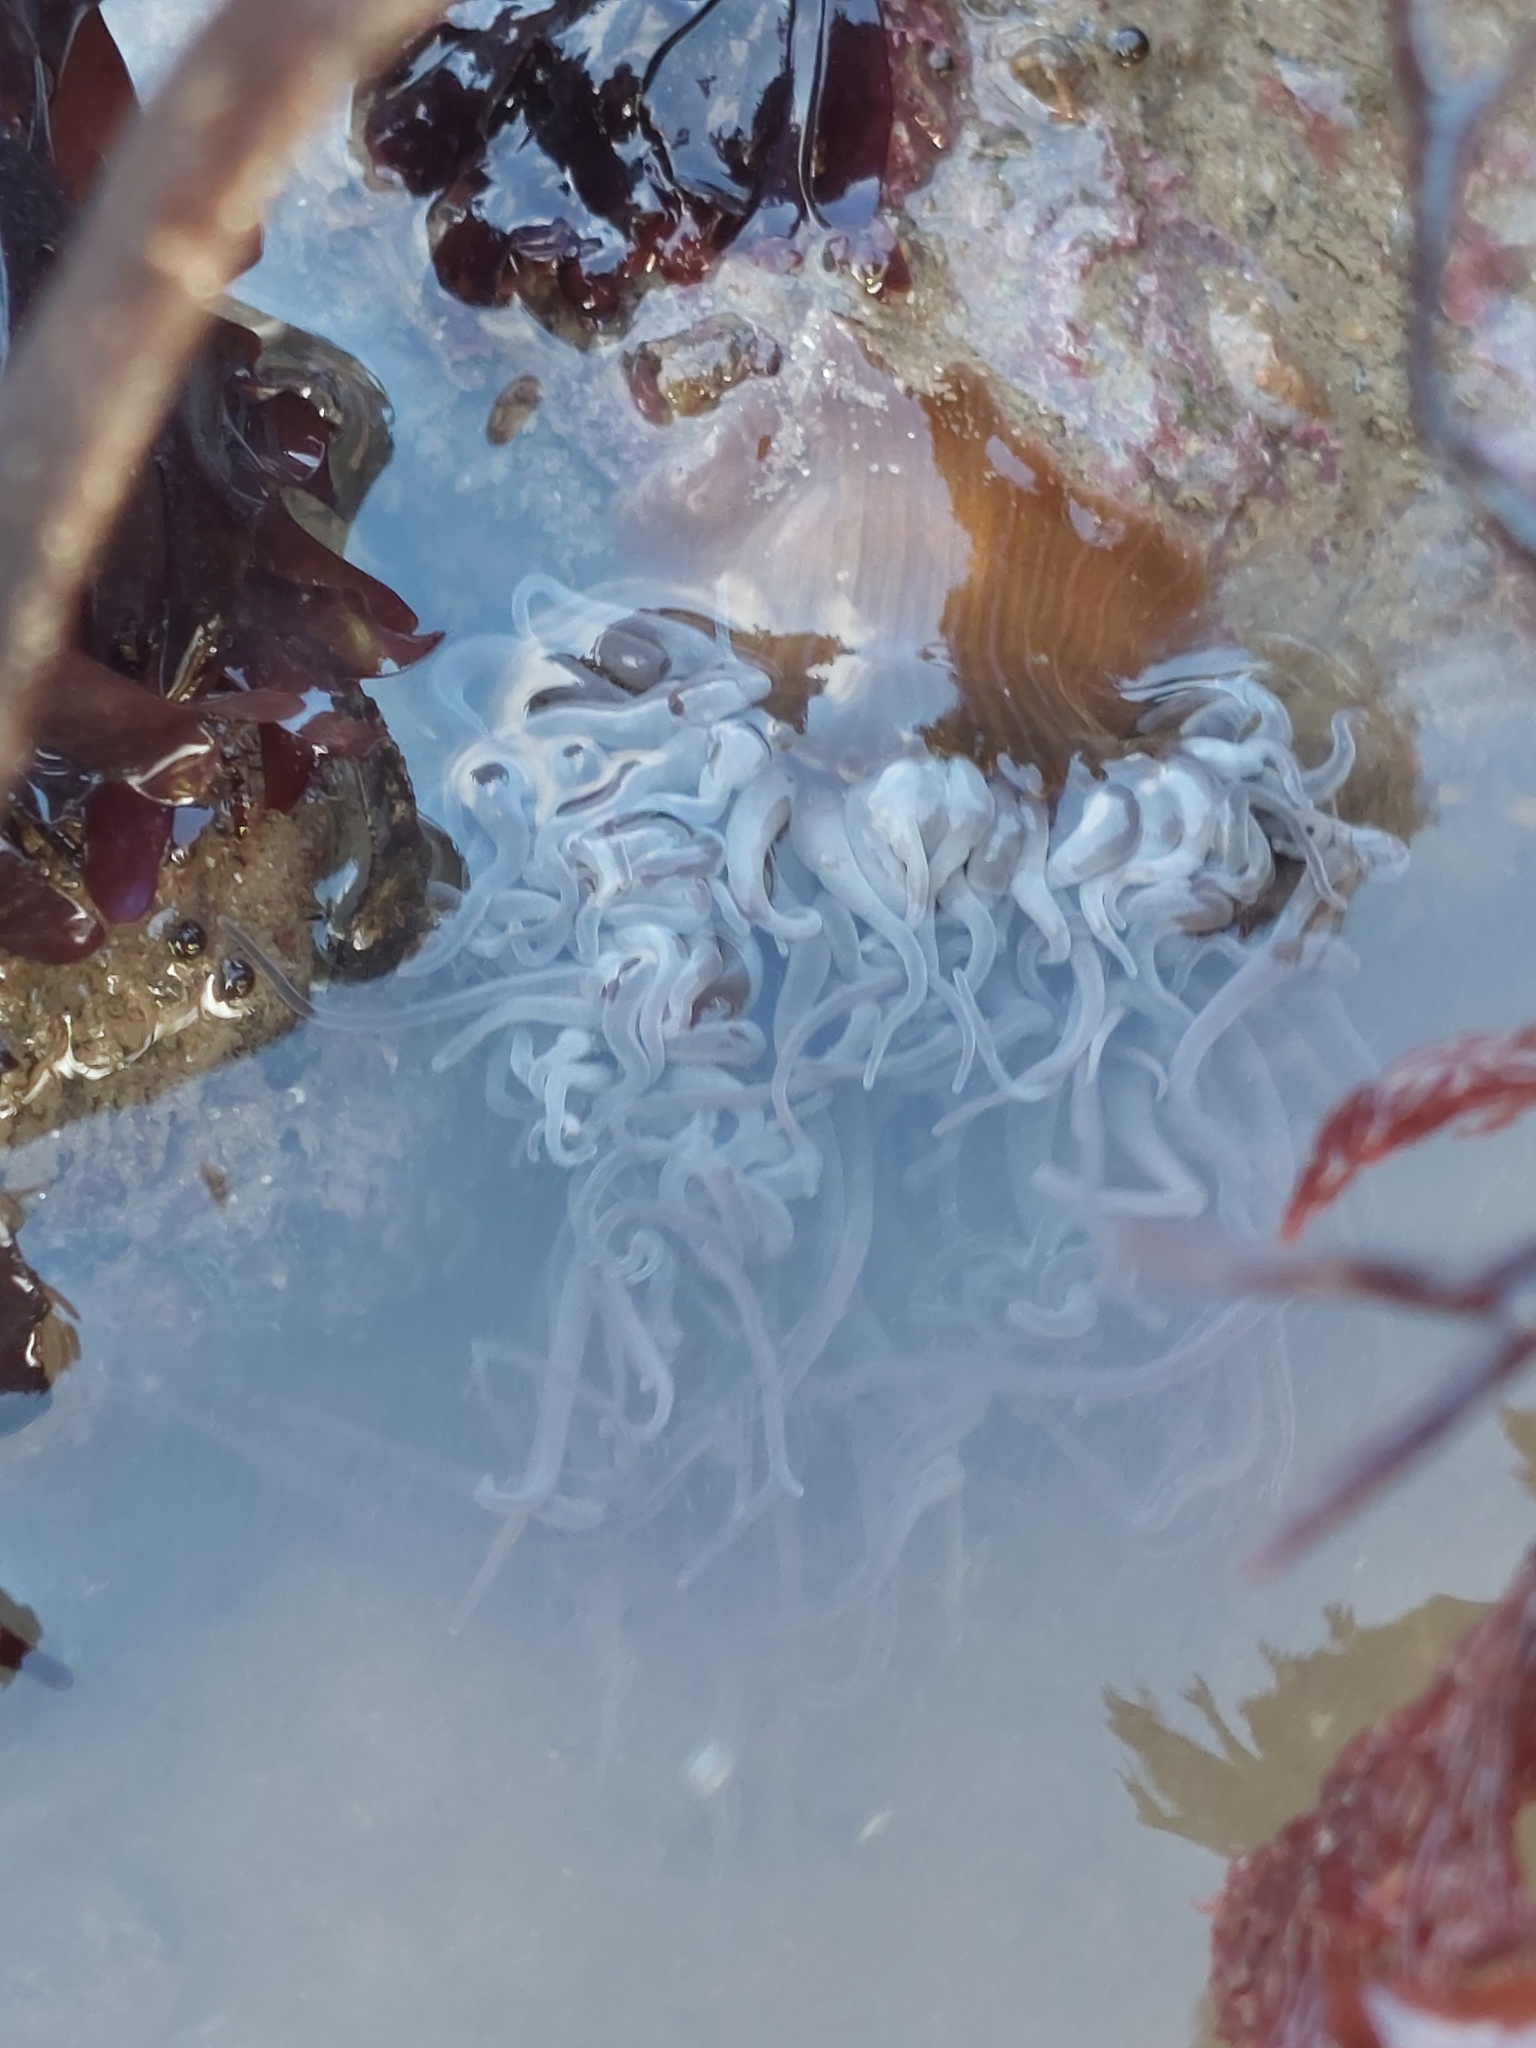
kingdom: Animalia
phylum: Cnidaria
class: Anthozoa
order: Actiniaria
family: Actiniidae
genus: Anemonia
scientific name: Anemonia viridis
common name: Snakelocks anemone
